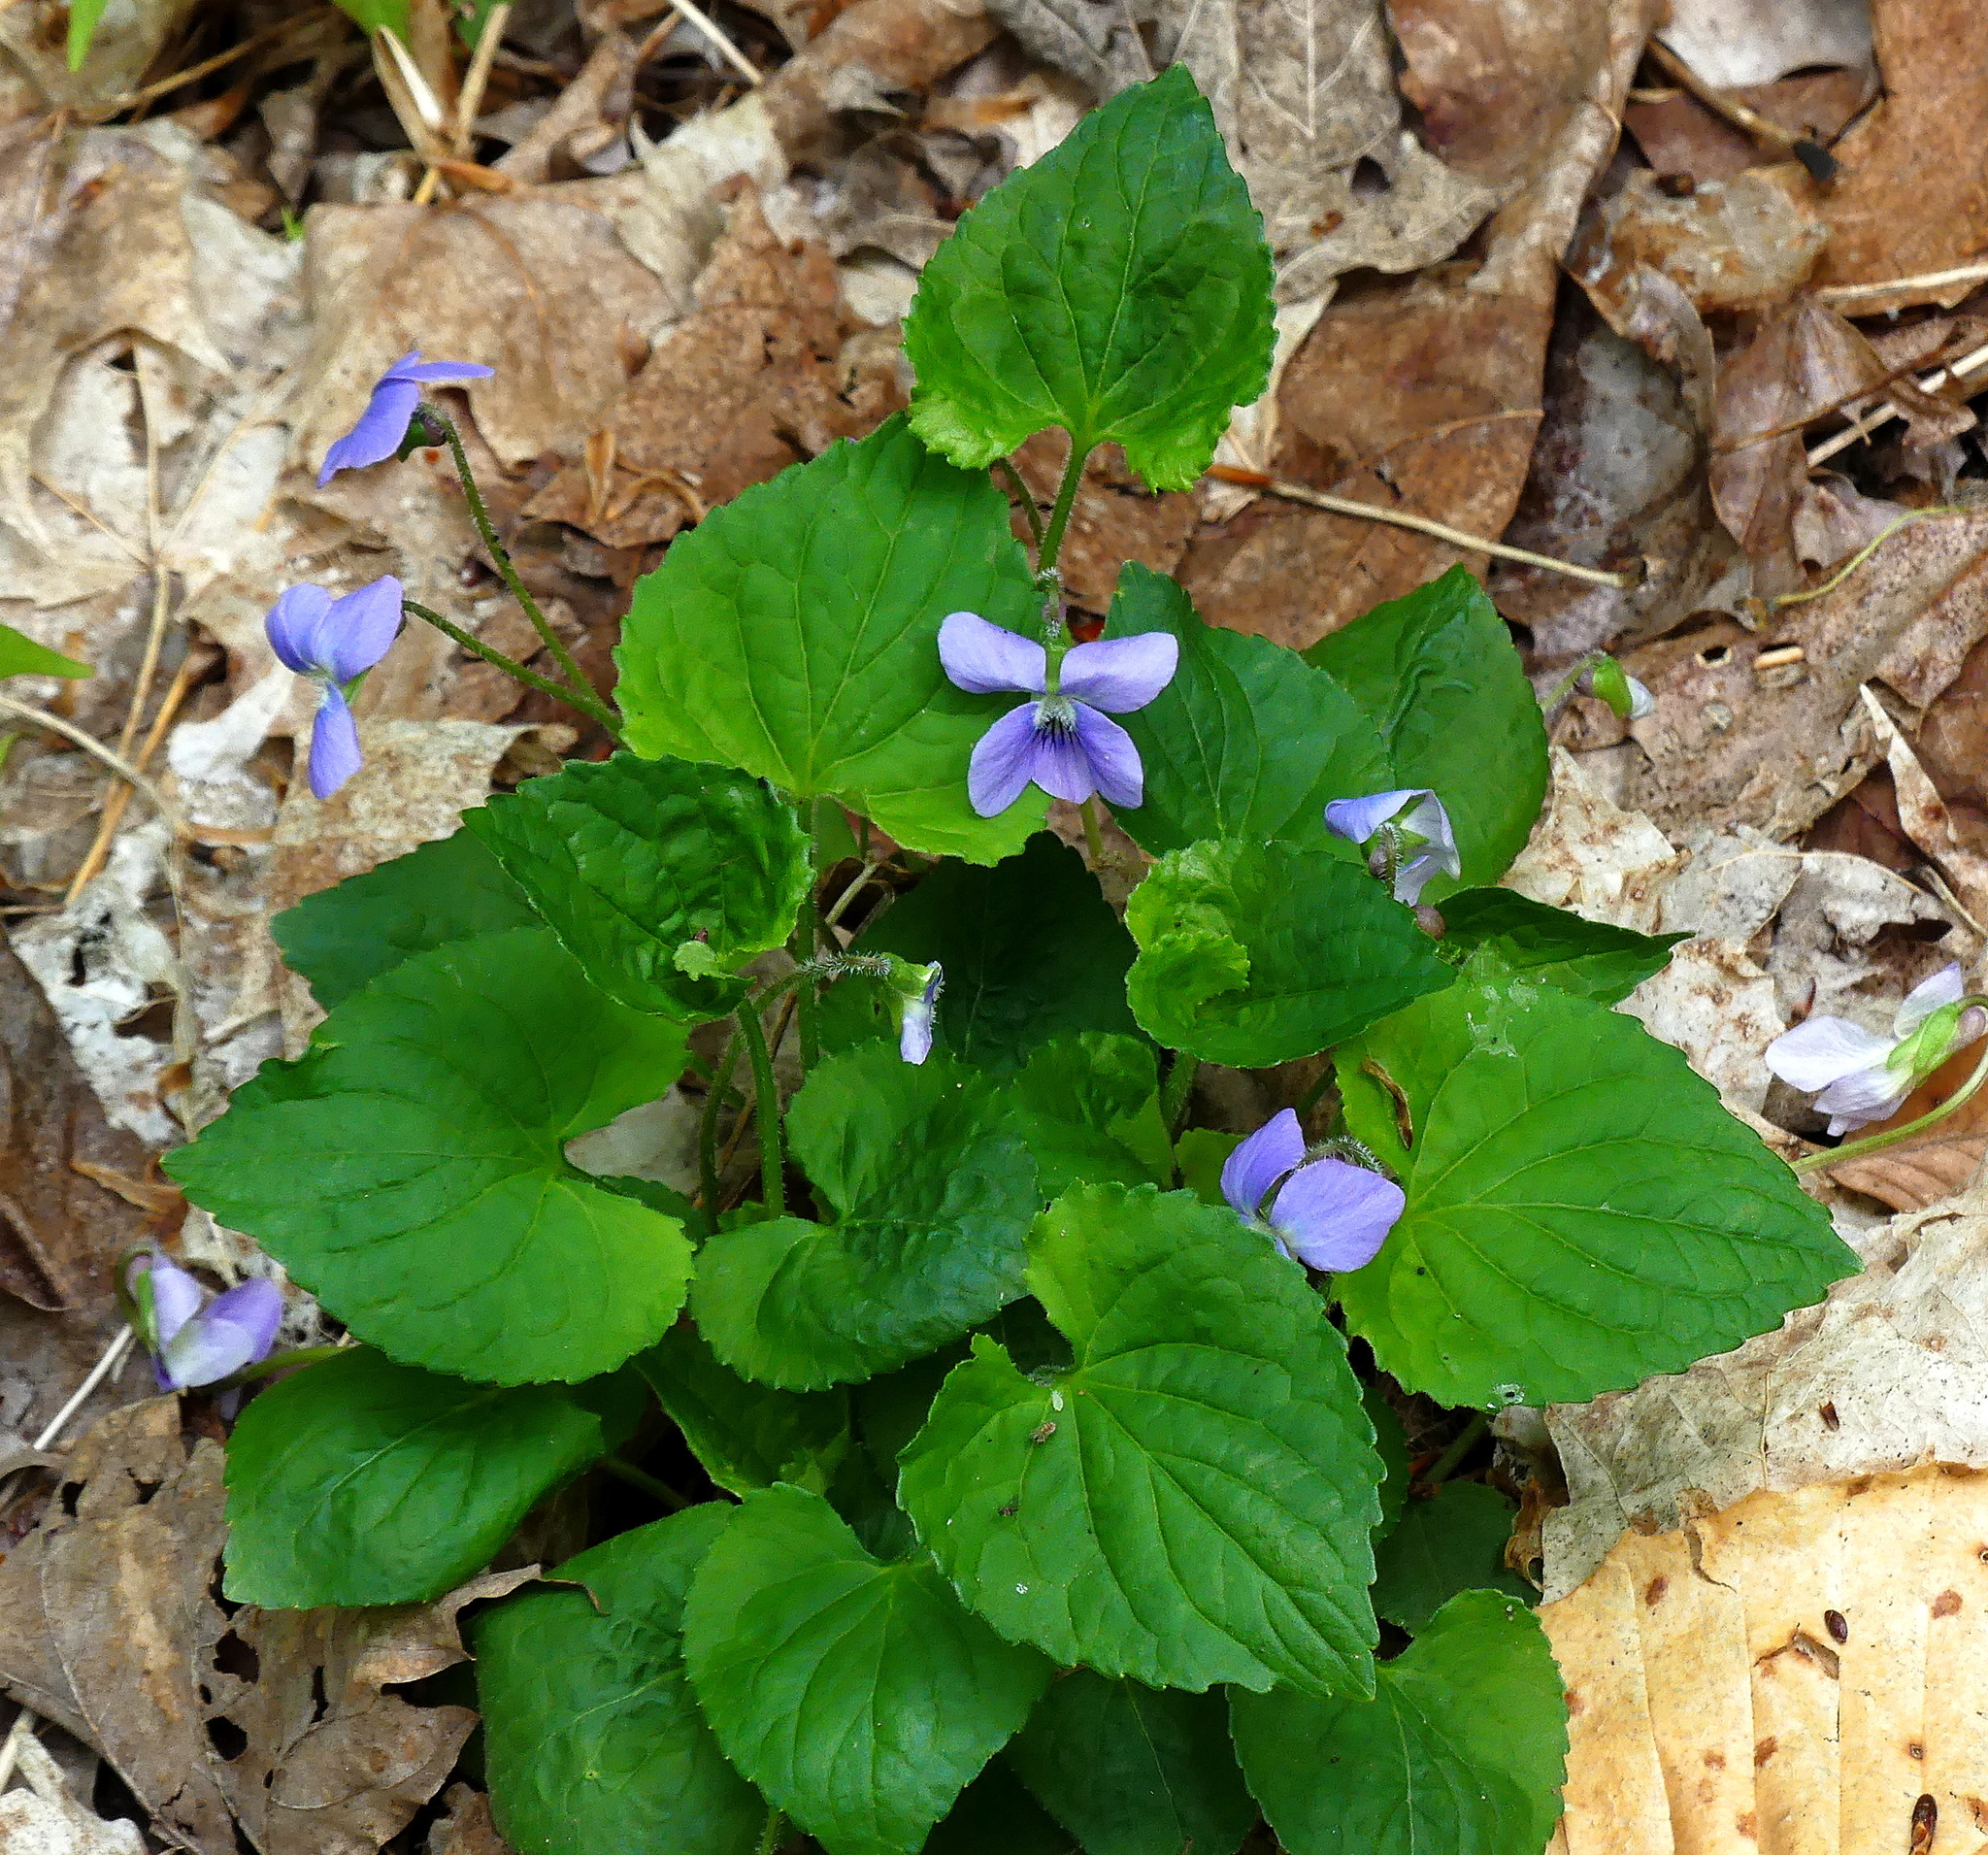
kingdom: Plantae
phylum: Tracheophyta
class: Magnoliopsida
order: Malpighiales
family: Violaceae
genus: Viola
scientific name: Viola sororia
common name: Dooryard violet
